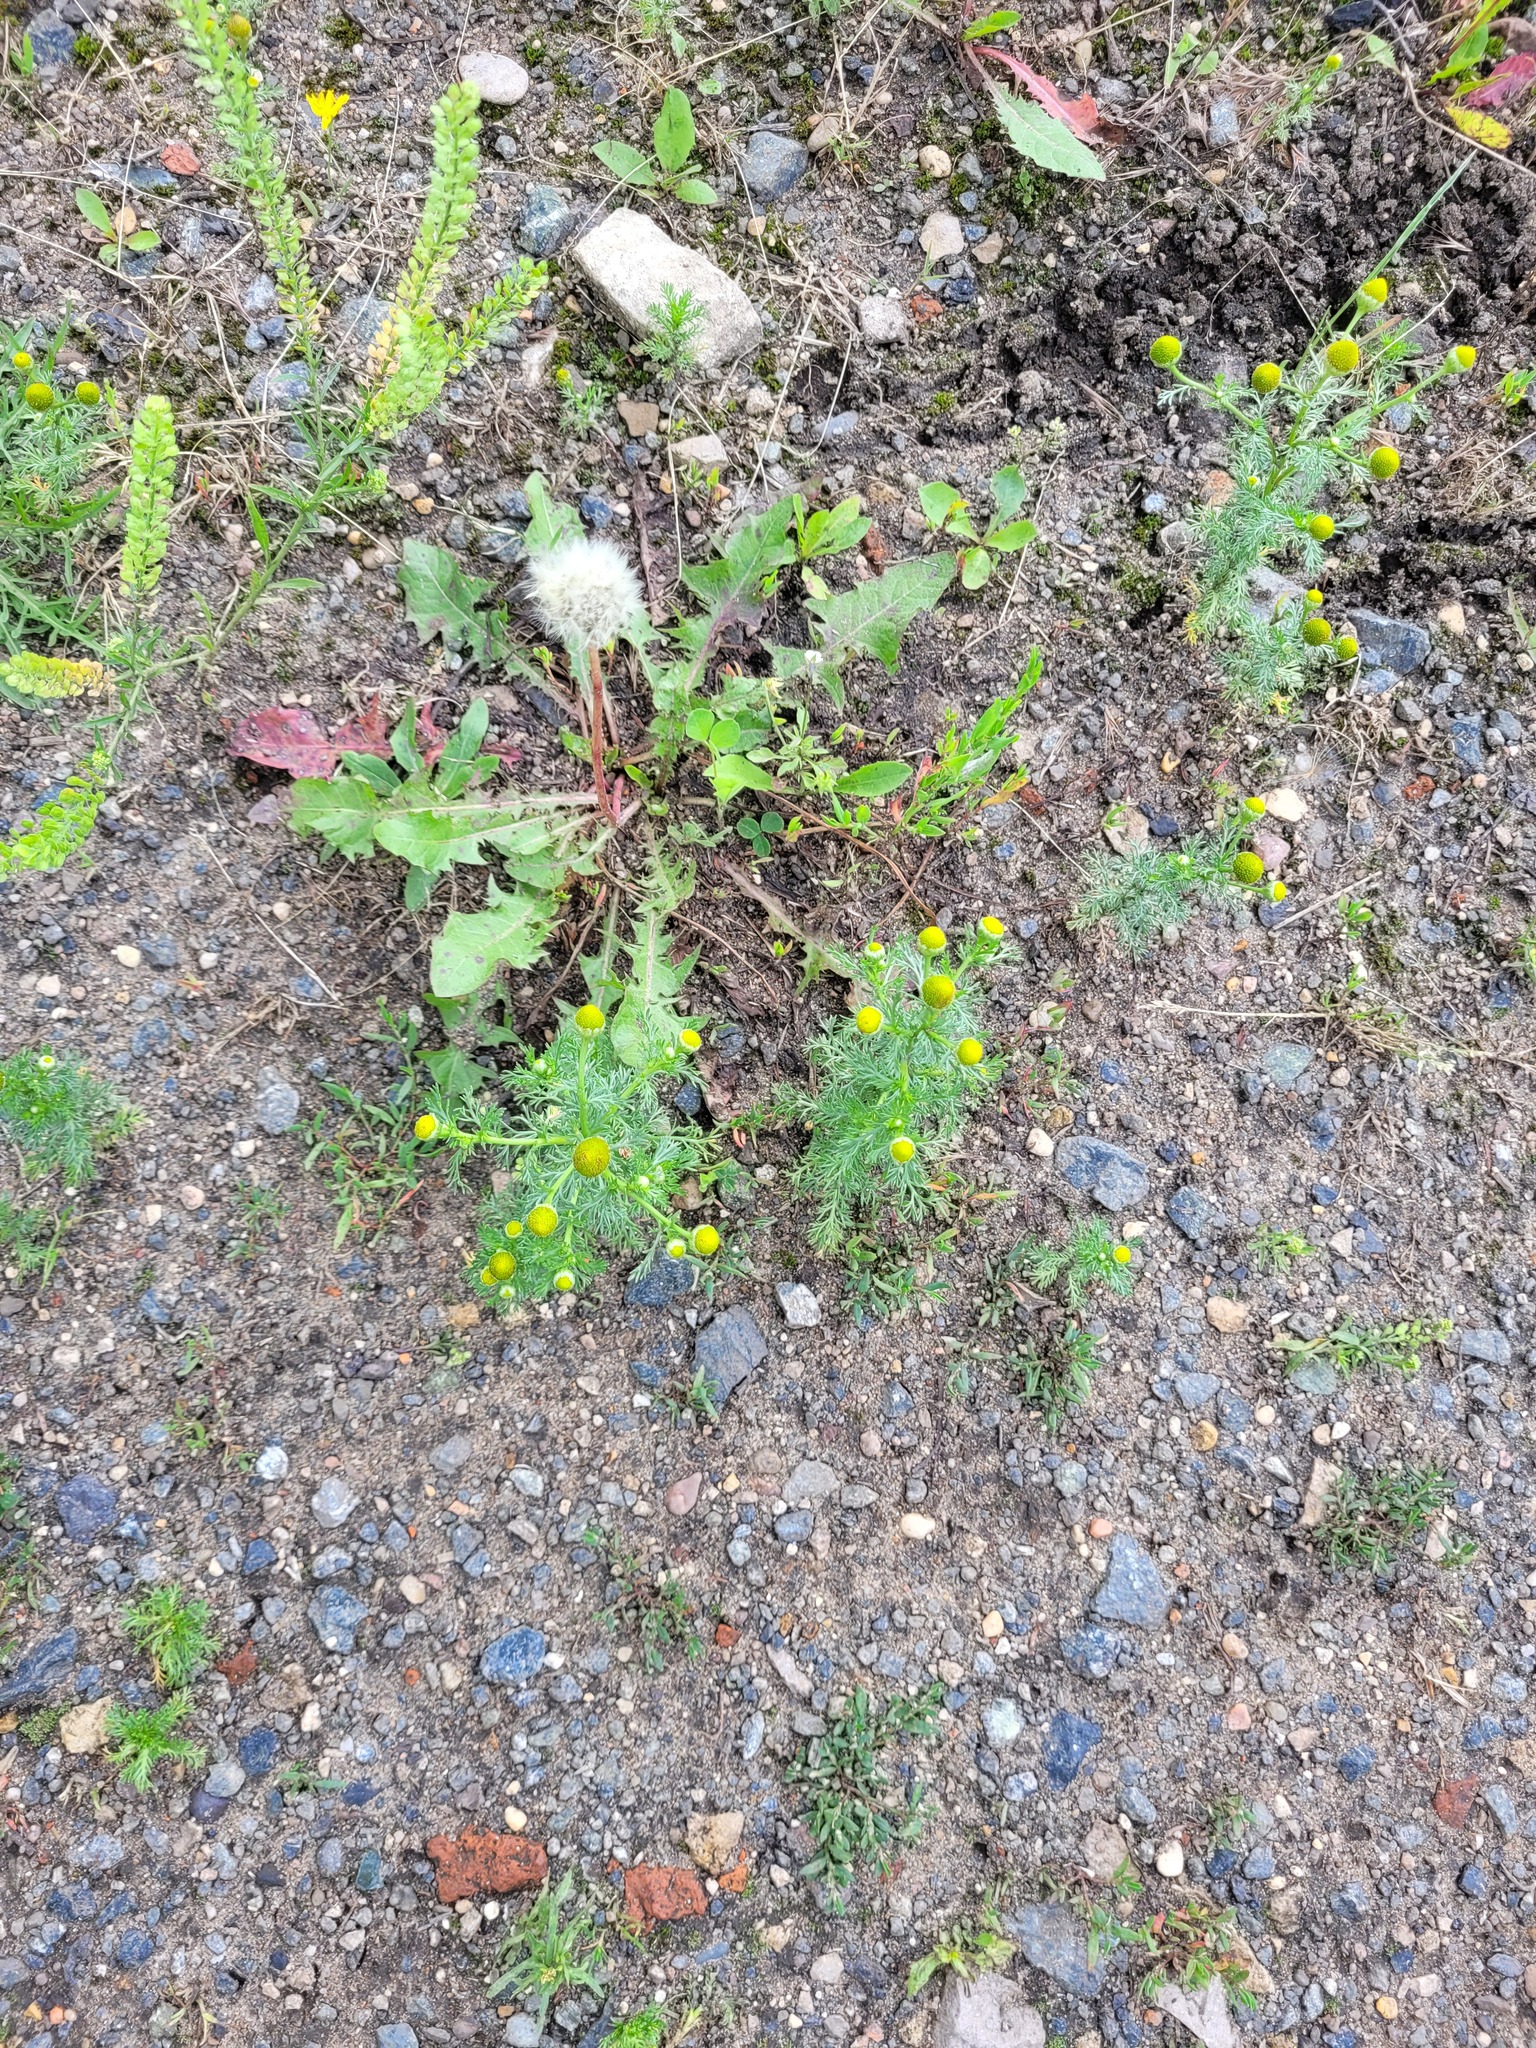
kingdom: Plantae
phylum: Tracheophyta
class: Magnoliopsida
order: Asterales
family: Asteraceae
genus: Matricaria
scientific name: Matricaria discoidea
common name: Disc mayweed
